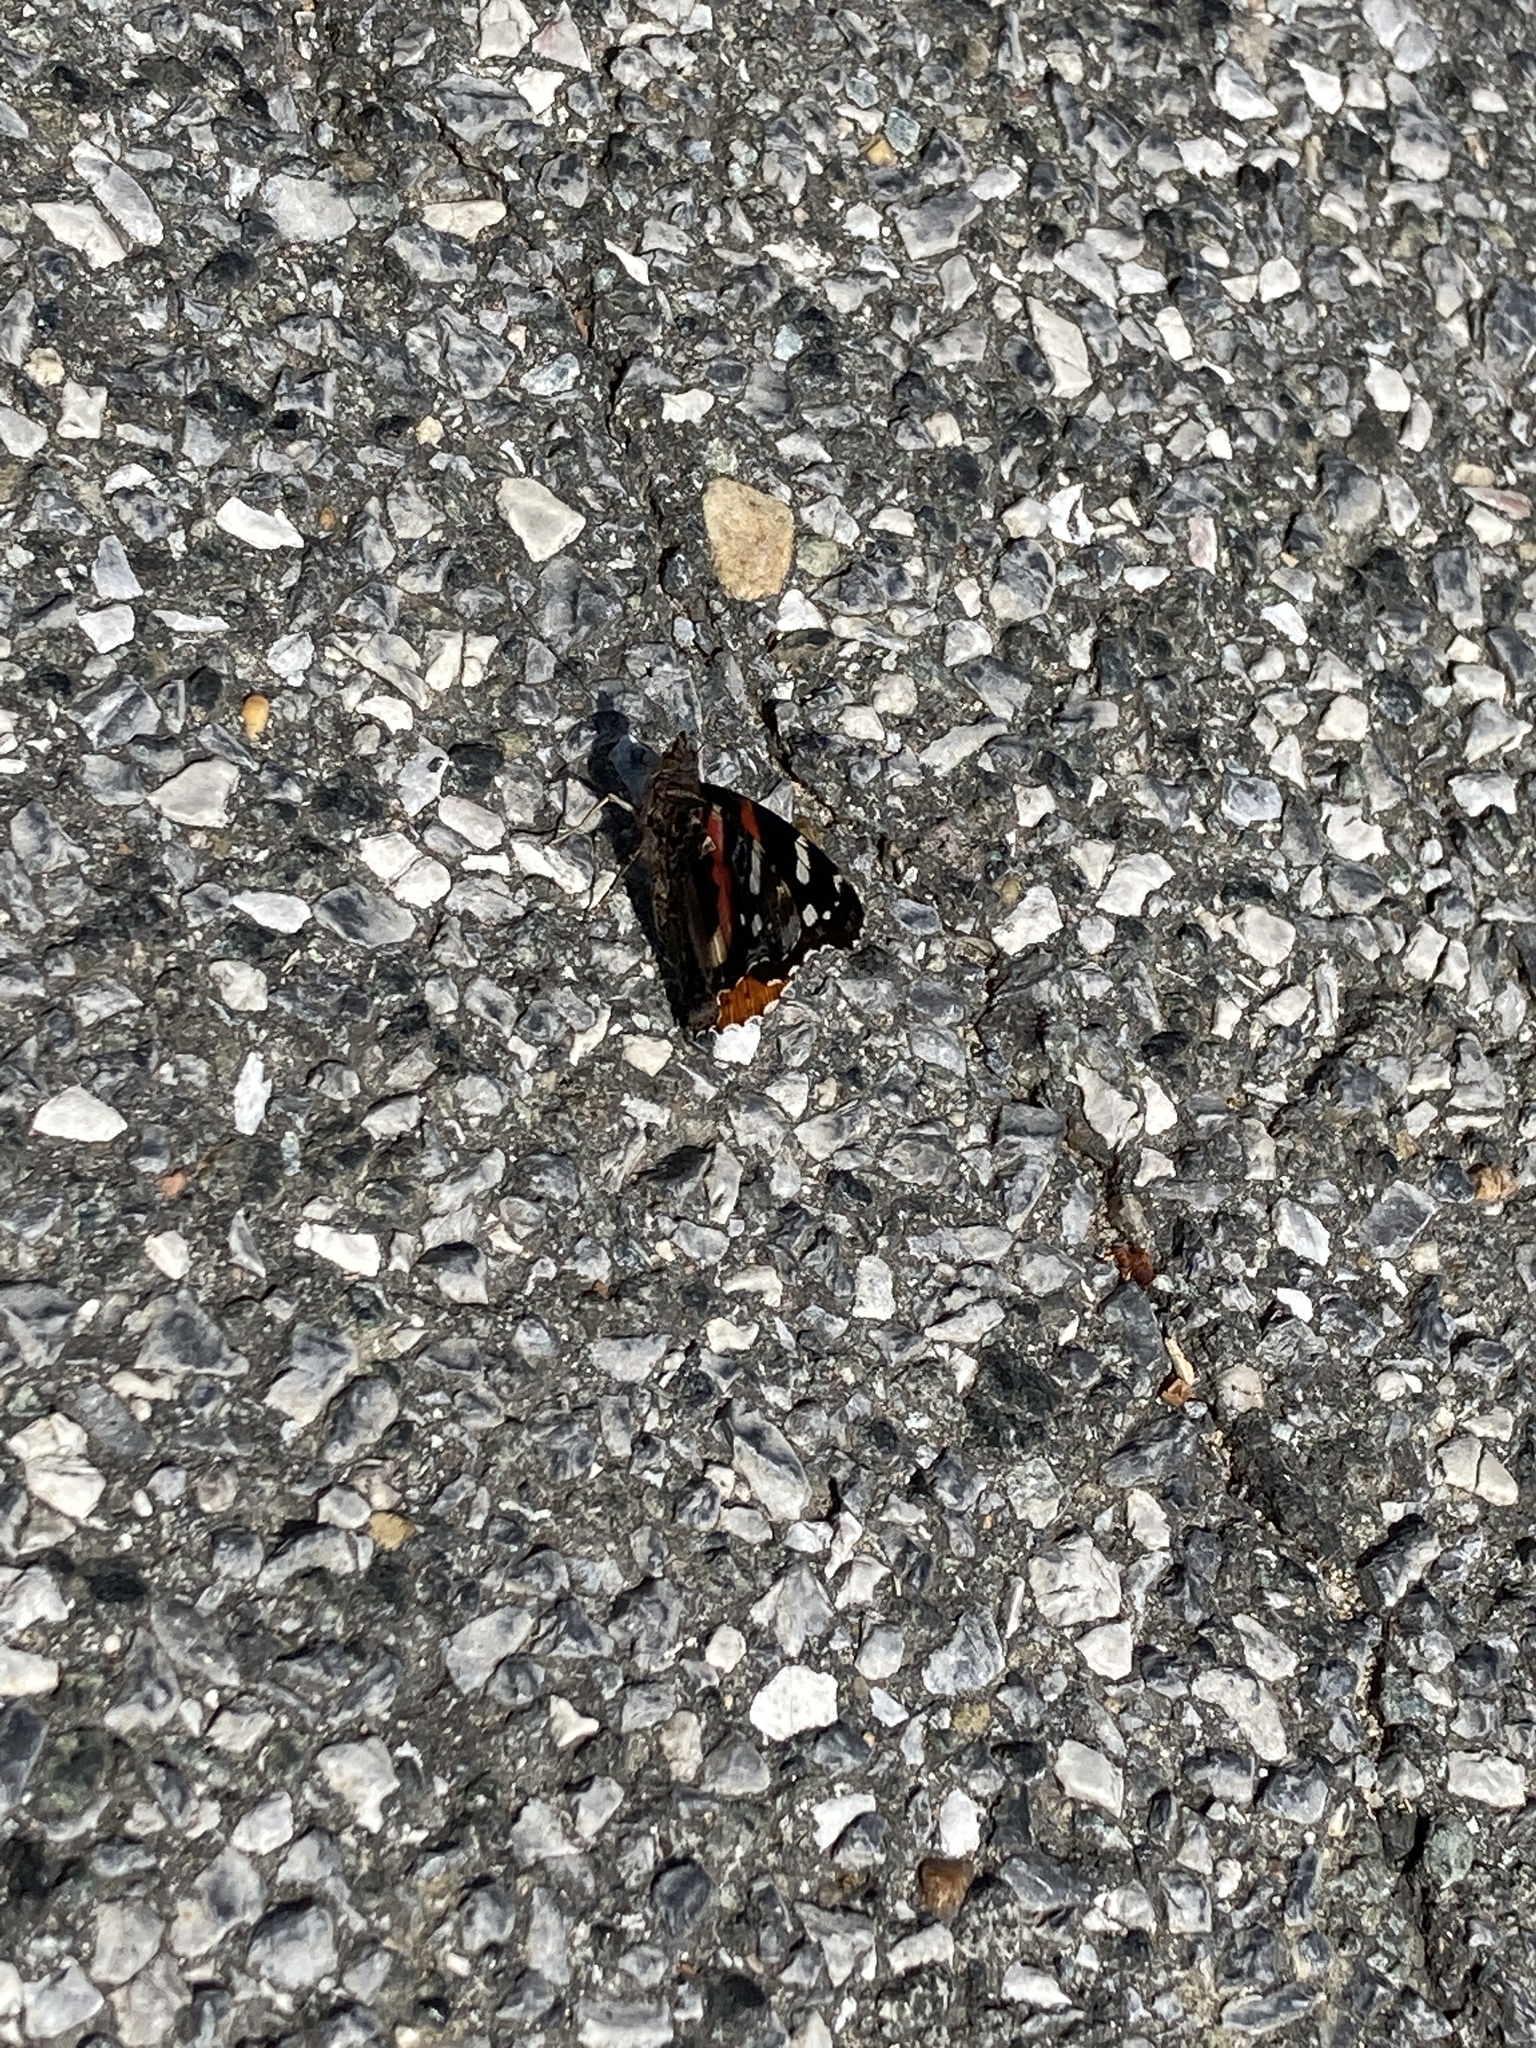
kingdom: Animalia
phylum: Arthropoda
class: Insecta
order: Lepidoptera
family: Nymphalidae
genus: Vanessa
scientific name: Vanessa atalanta
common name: Red admiral
